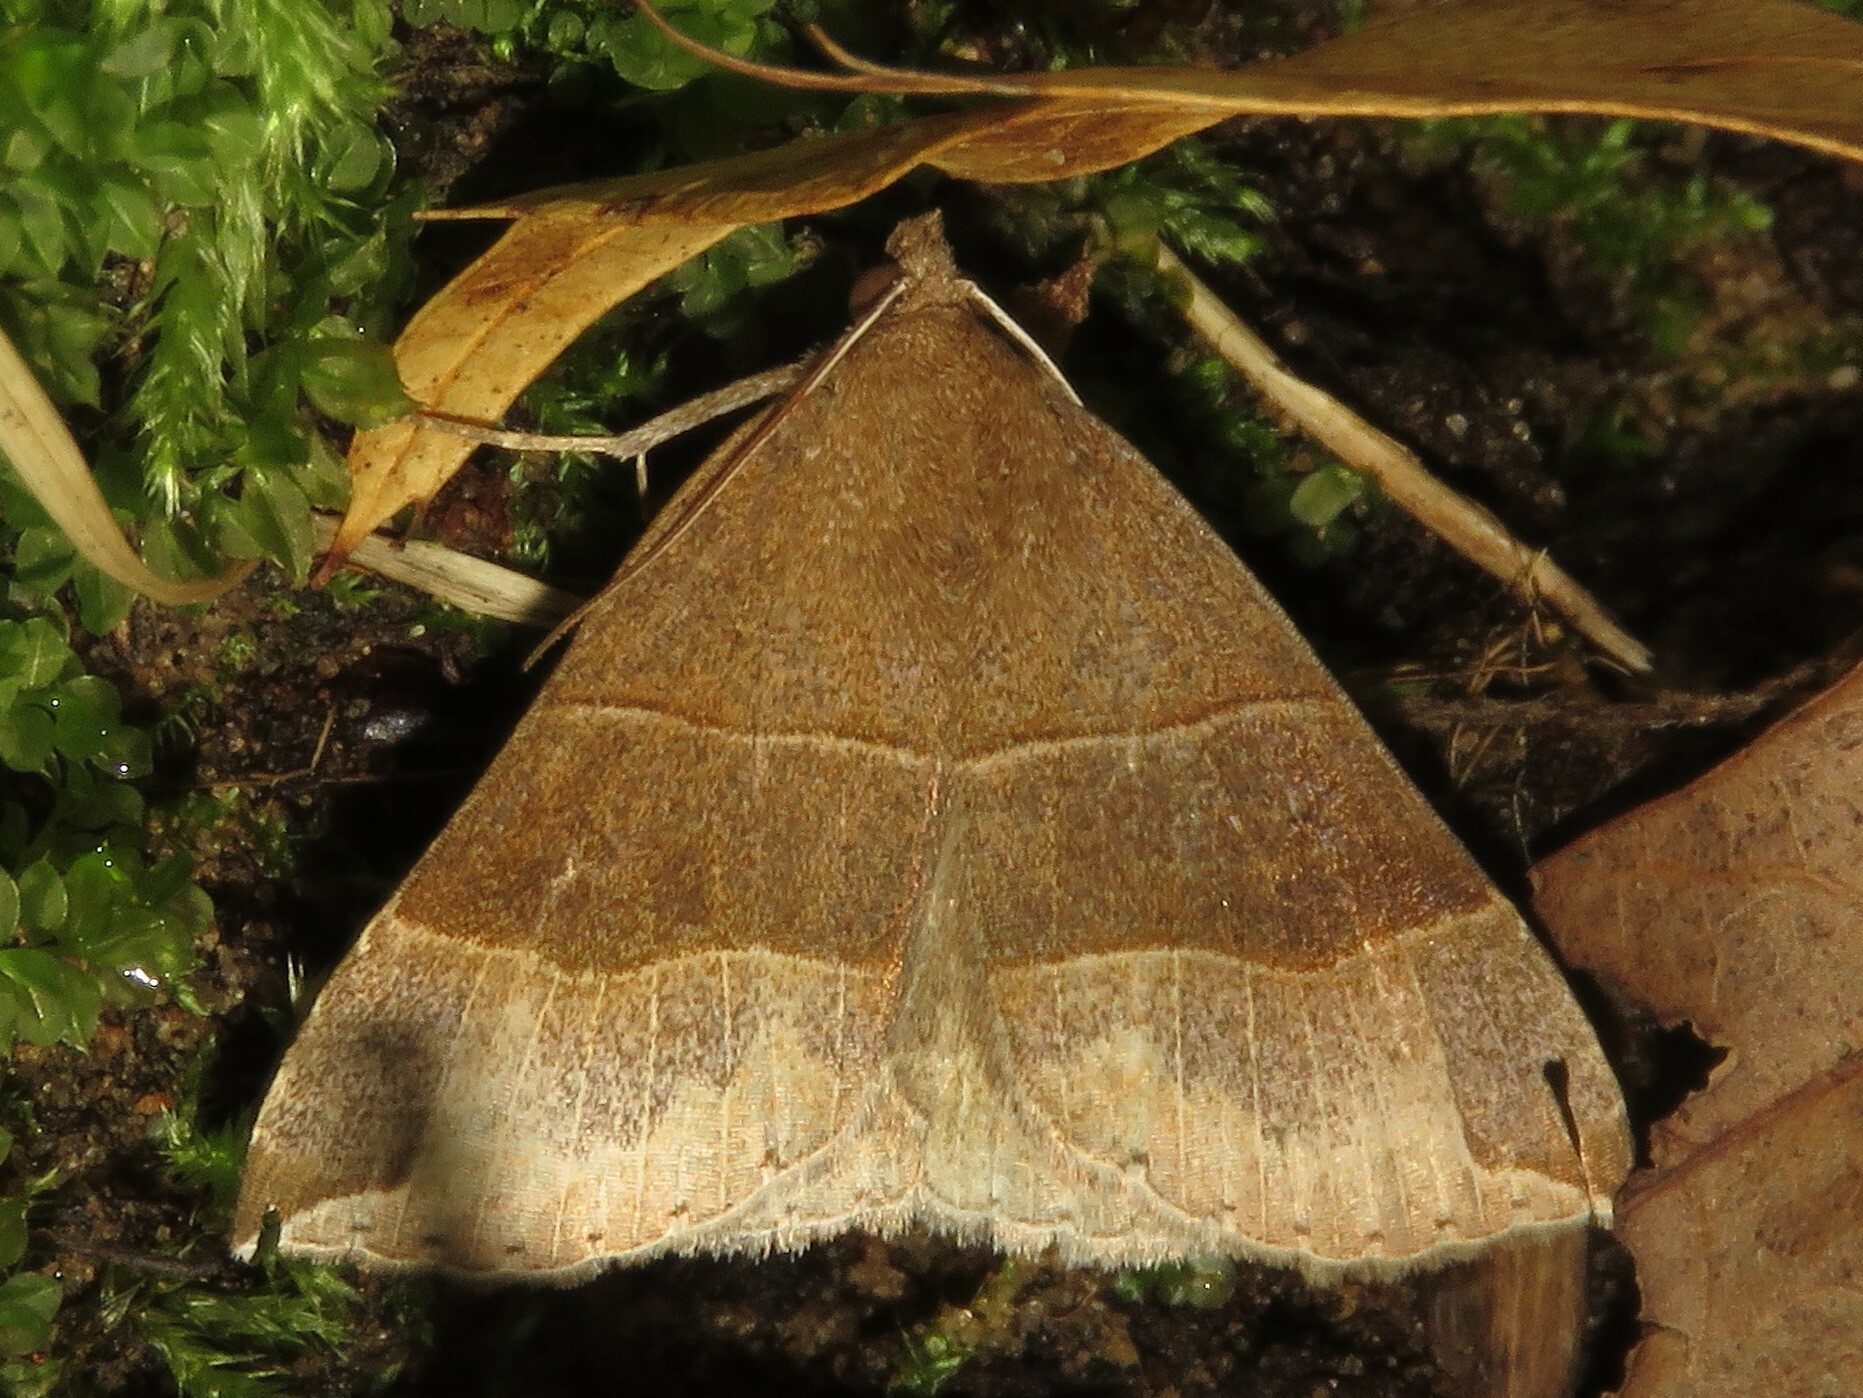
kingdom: Animalia
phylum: Arthropoda
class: Insecta
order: Lepidoptera
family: Erebidae
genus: Parallelia
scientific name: Parallelia bistriaris
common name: Maple looper moth
